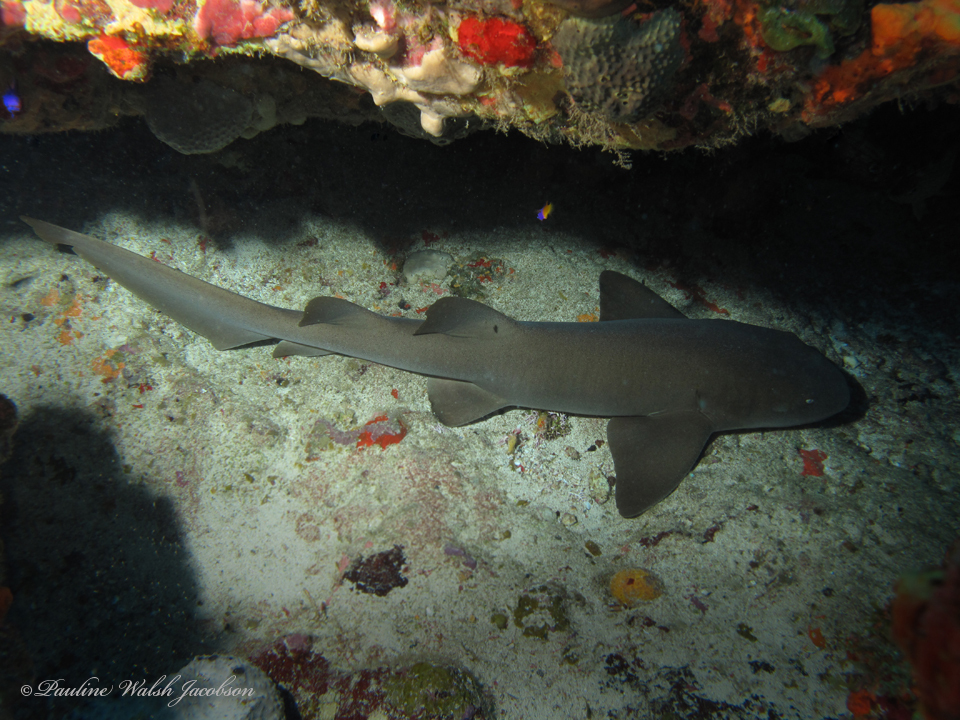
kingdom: Animalia
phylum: Chordata
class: Elasmobranchii
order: Orectolobiformes
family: Ginglymostomatidae
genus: Ginglymostoma
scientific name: Ginglymostoma cirratum
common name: Nurse shark
